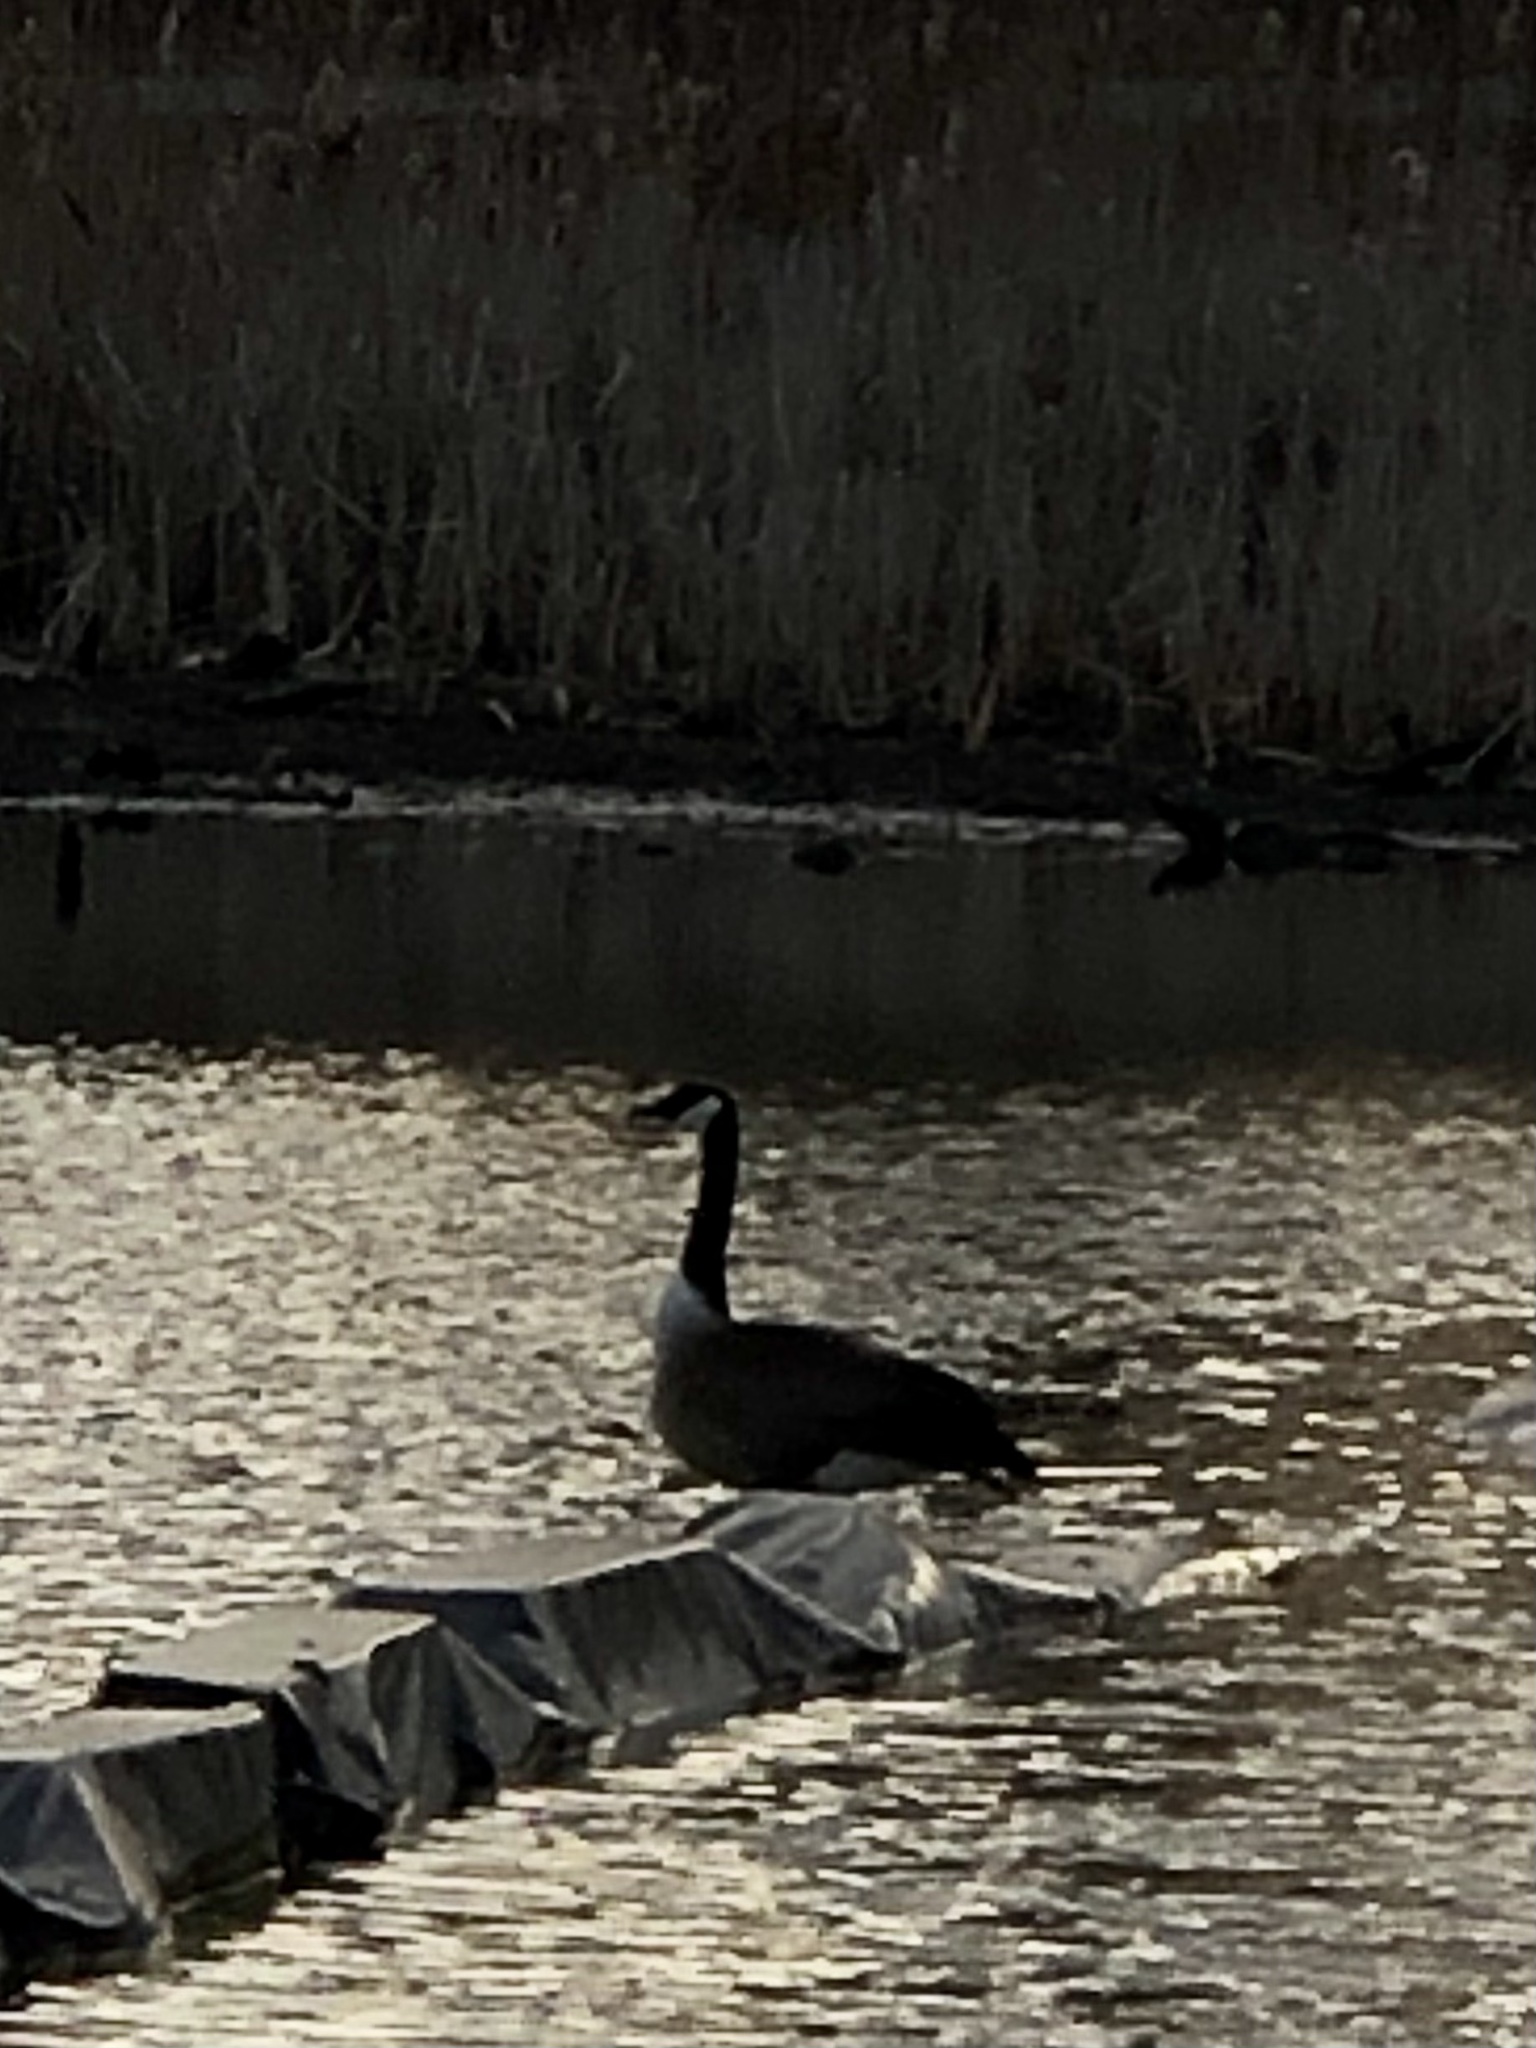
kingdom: Animalia
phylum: Chordata
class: Aves
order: Anseriformes
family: Anatidae
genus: Branta
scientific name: Branta canadensis
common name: Canada goose
